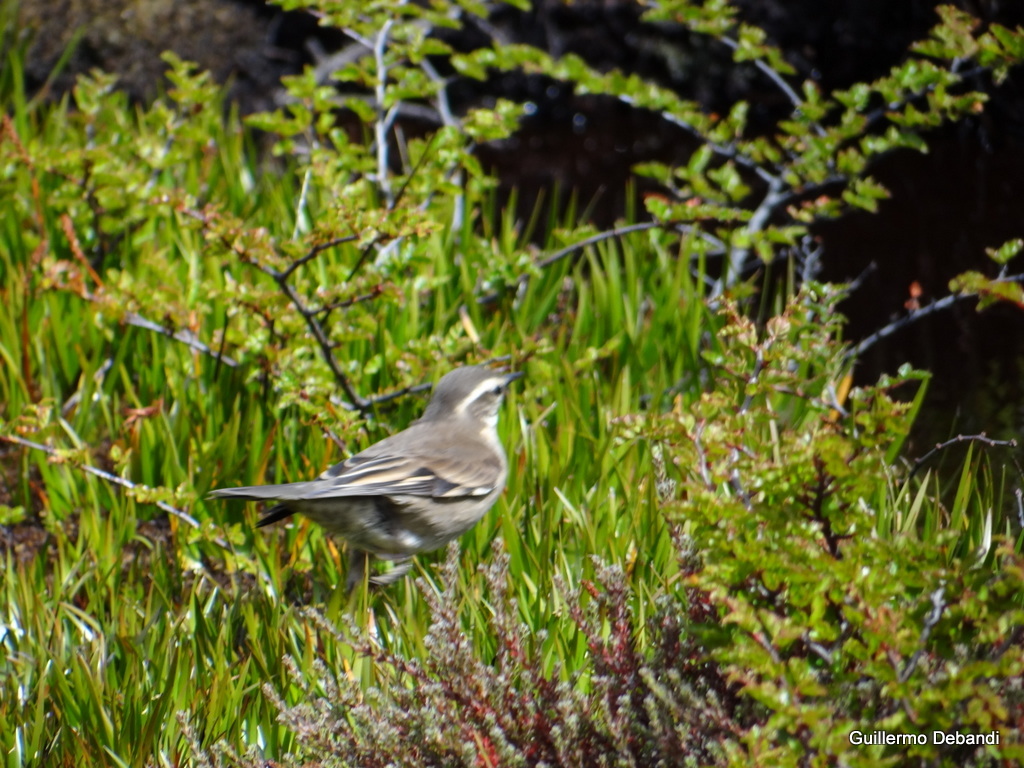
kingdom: Animalia
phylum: Chordata
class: Aves
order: Passeriformes
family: Furnariidae
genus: Cinclodes
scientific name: Cinclodes fuscus
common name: Buff-winged cinclodes
